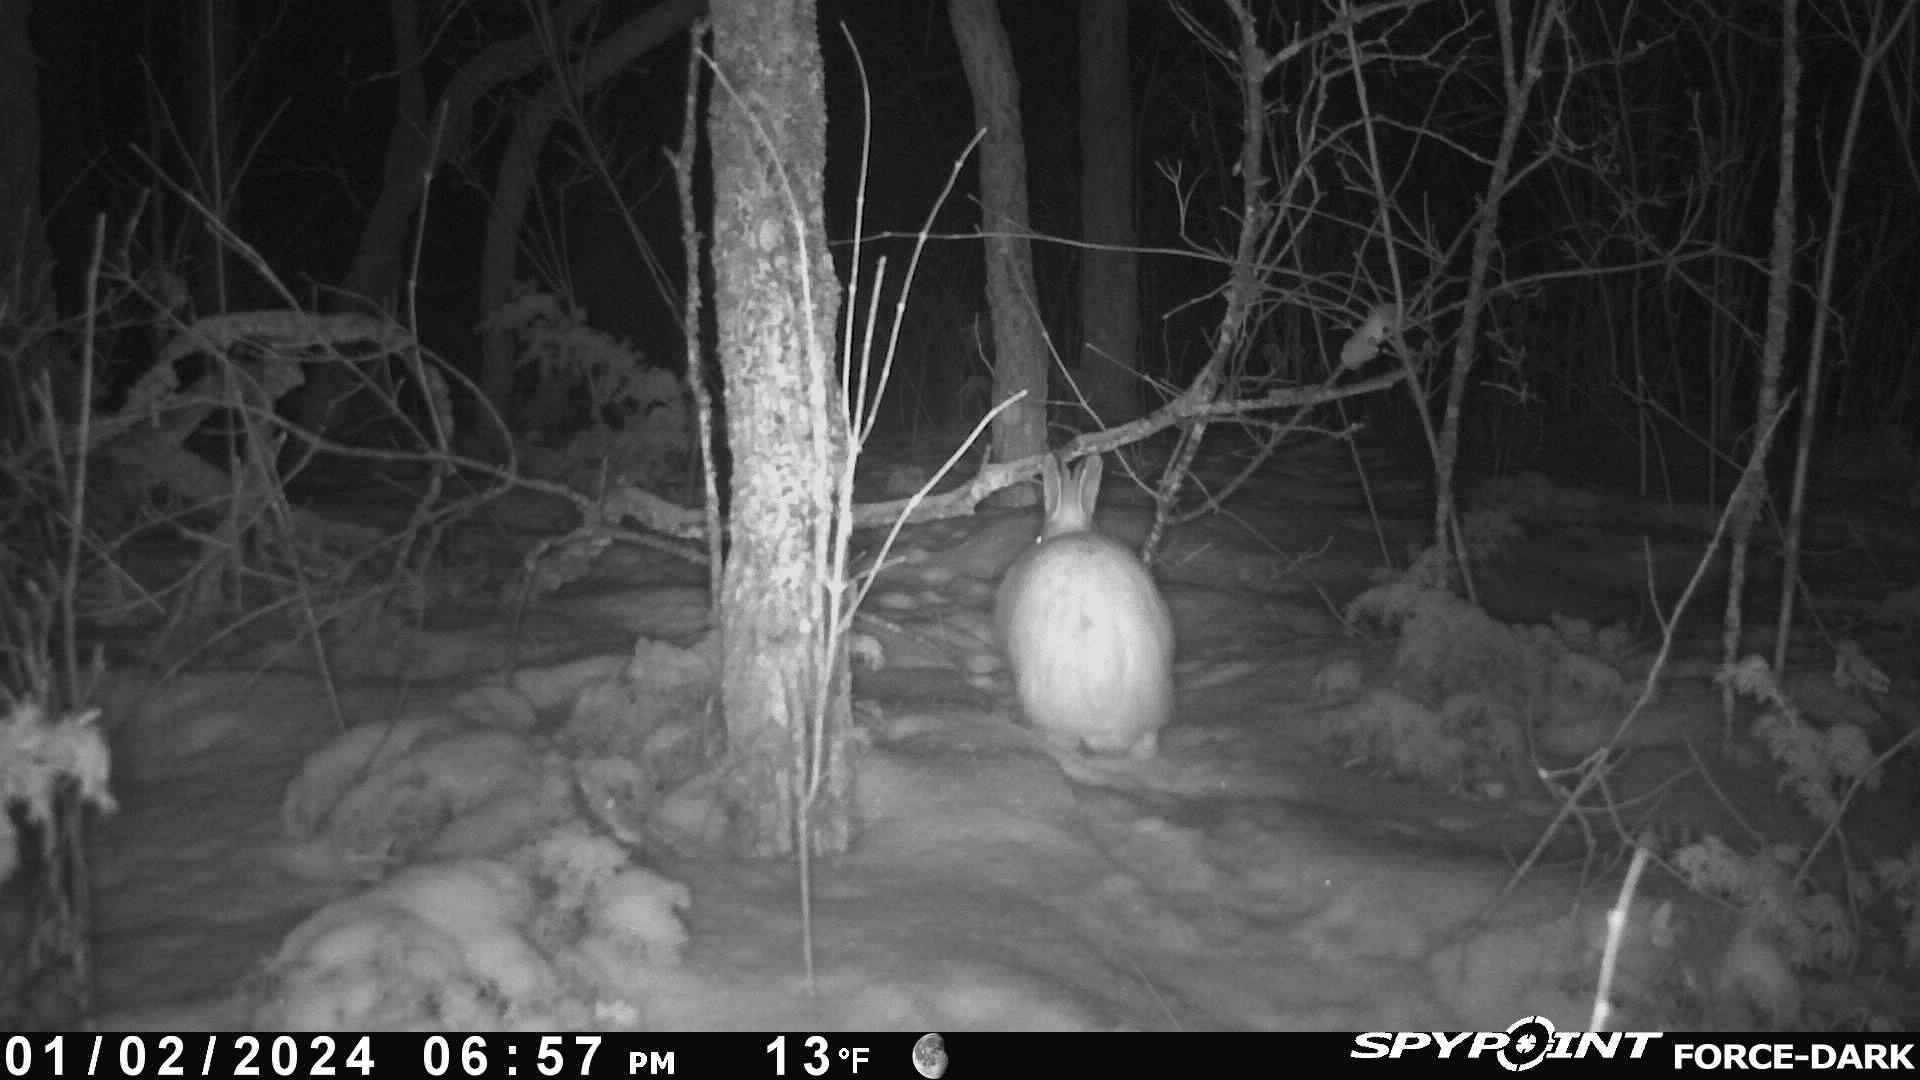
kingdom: Animalia
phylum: Chordata
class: Mammalia
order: Lagomorpha
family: Leporidae
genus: Lepus
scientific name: Lepus americanus
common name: Snowshoe hare
